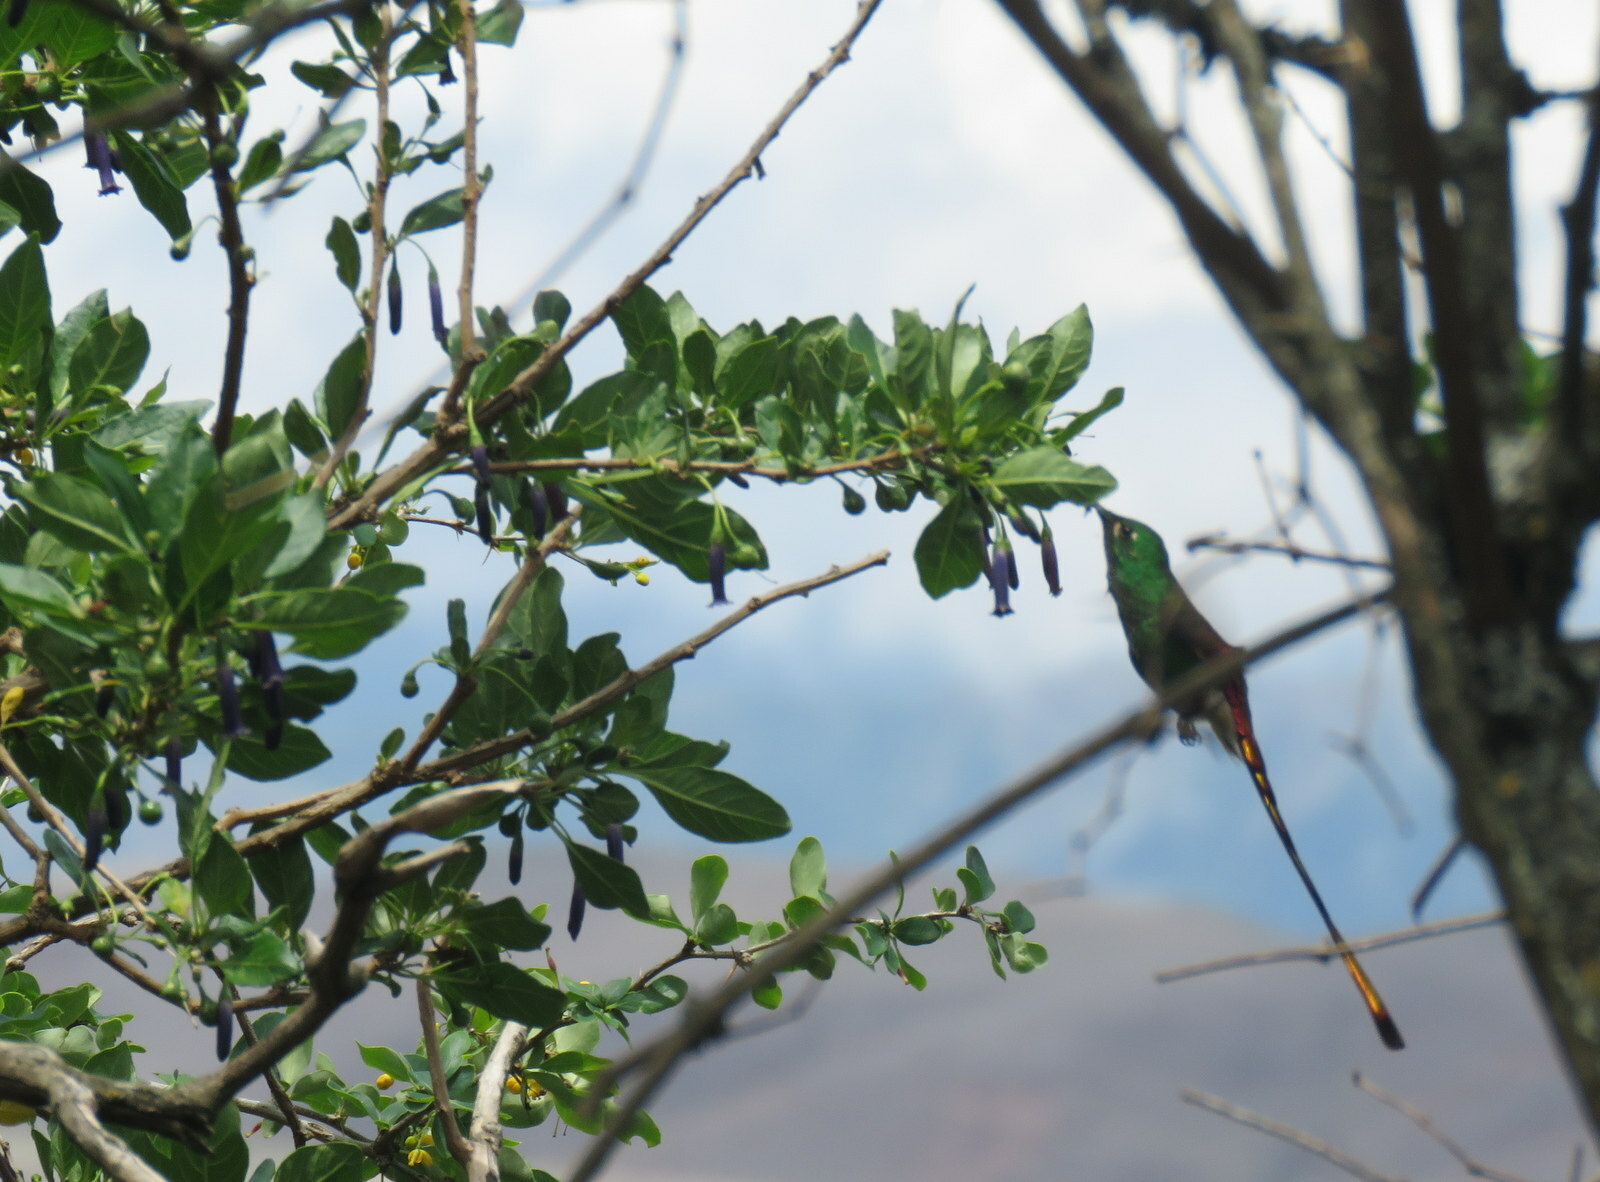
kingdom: Animalia
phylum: Chordata
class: Aves
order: Apodiformes
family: Trochilidae
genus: Sappho
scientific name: Sappho sparganurus
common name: Red-tailed comet
